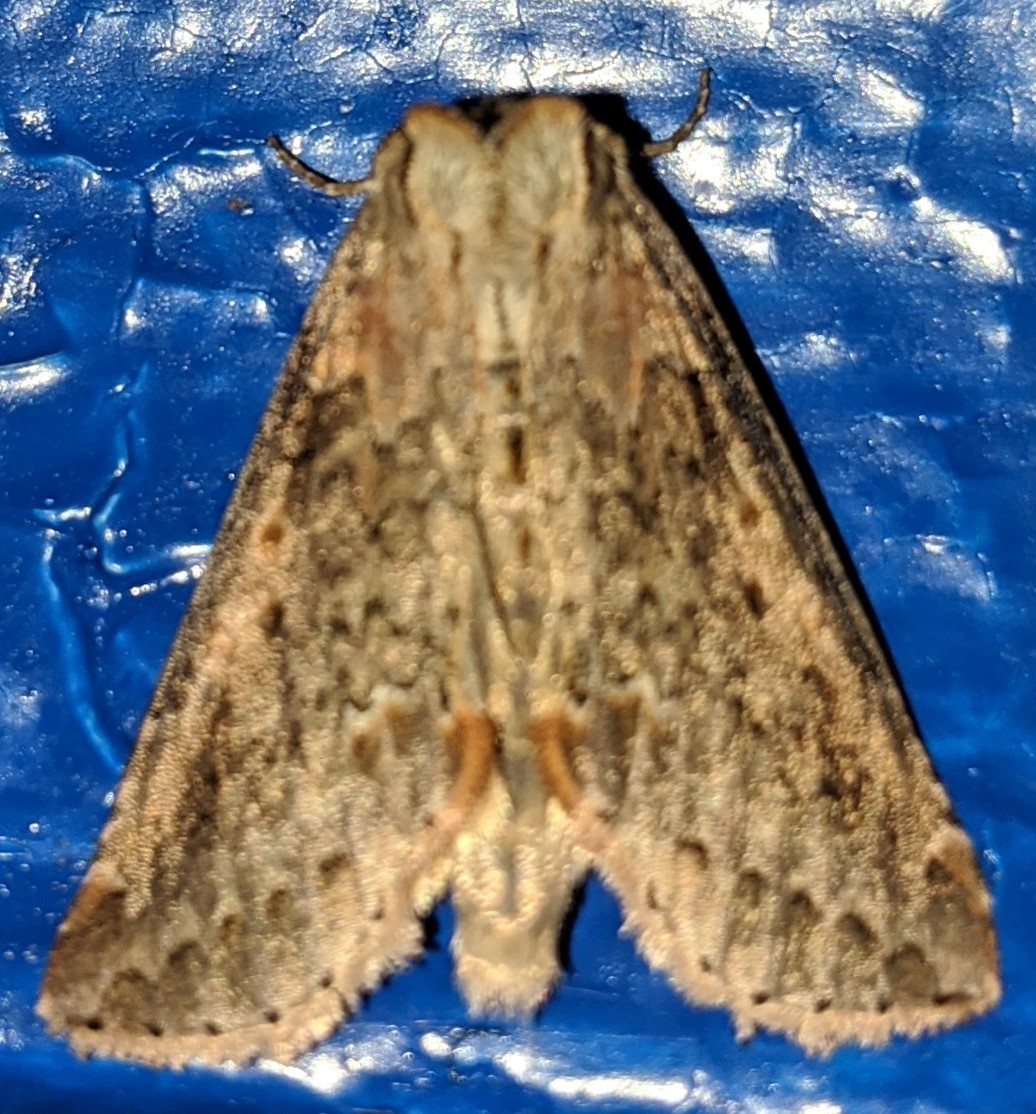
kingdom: Animalia
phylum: Arthropoda
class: Insecta
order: Lepidoptera
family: Drepanidae
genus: Pseudothyatira
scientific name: Pseudothyatira cymatophoroides
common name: Tufted thyatirid moth
